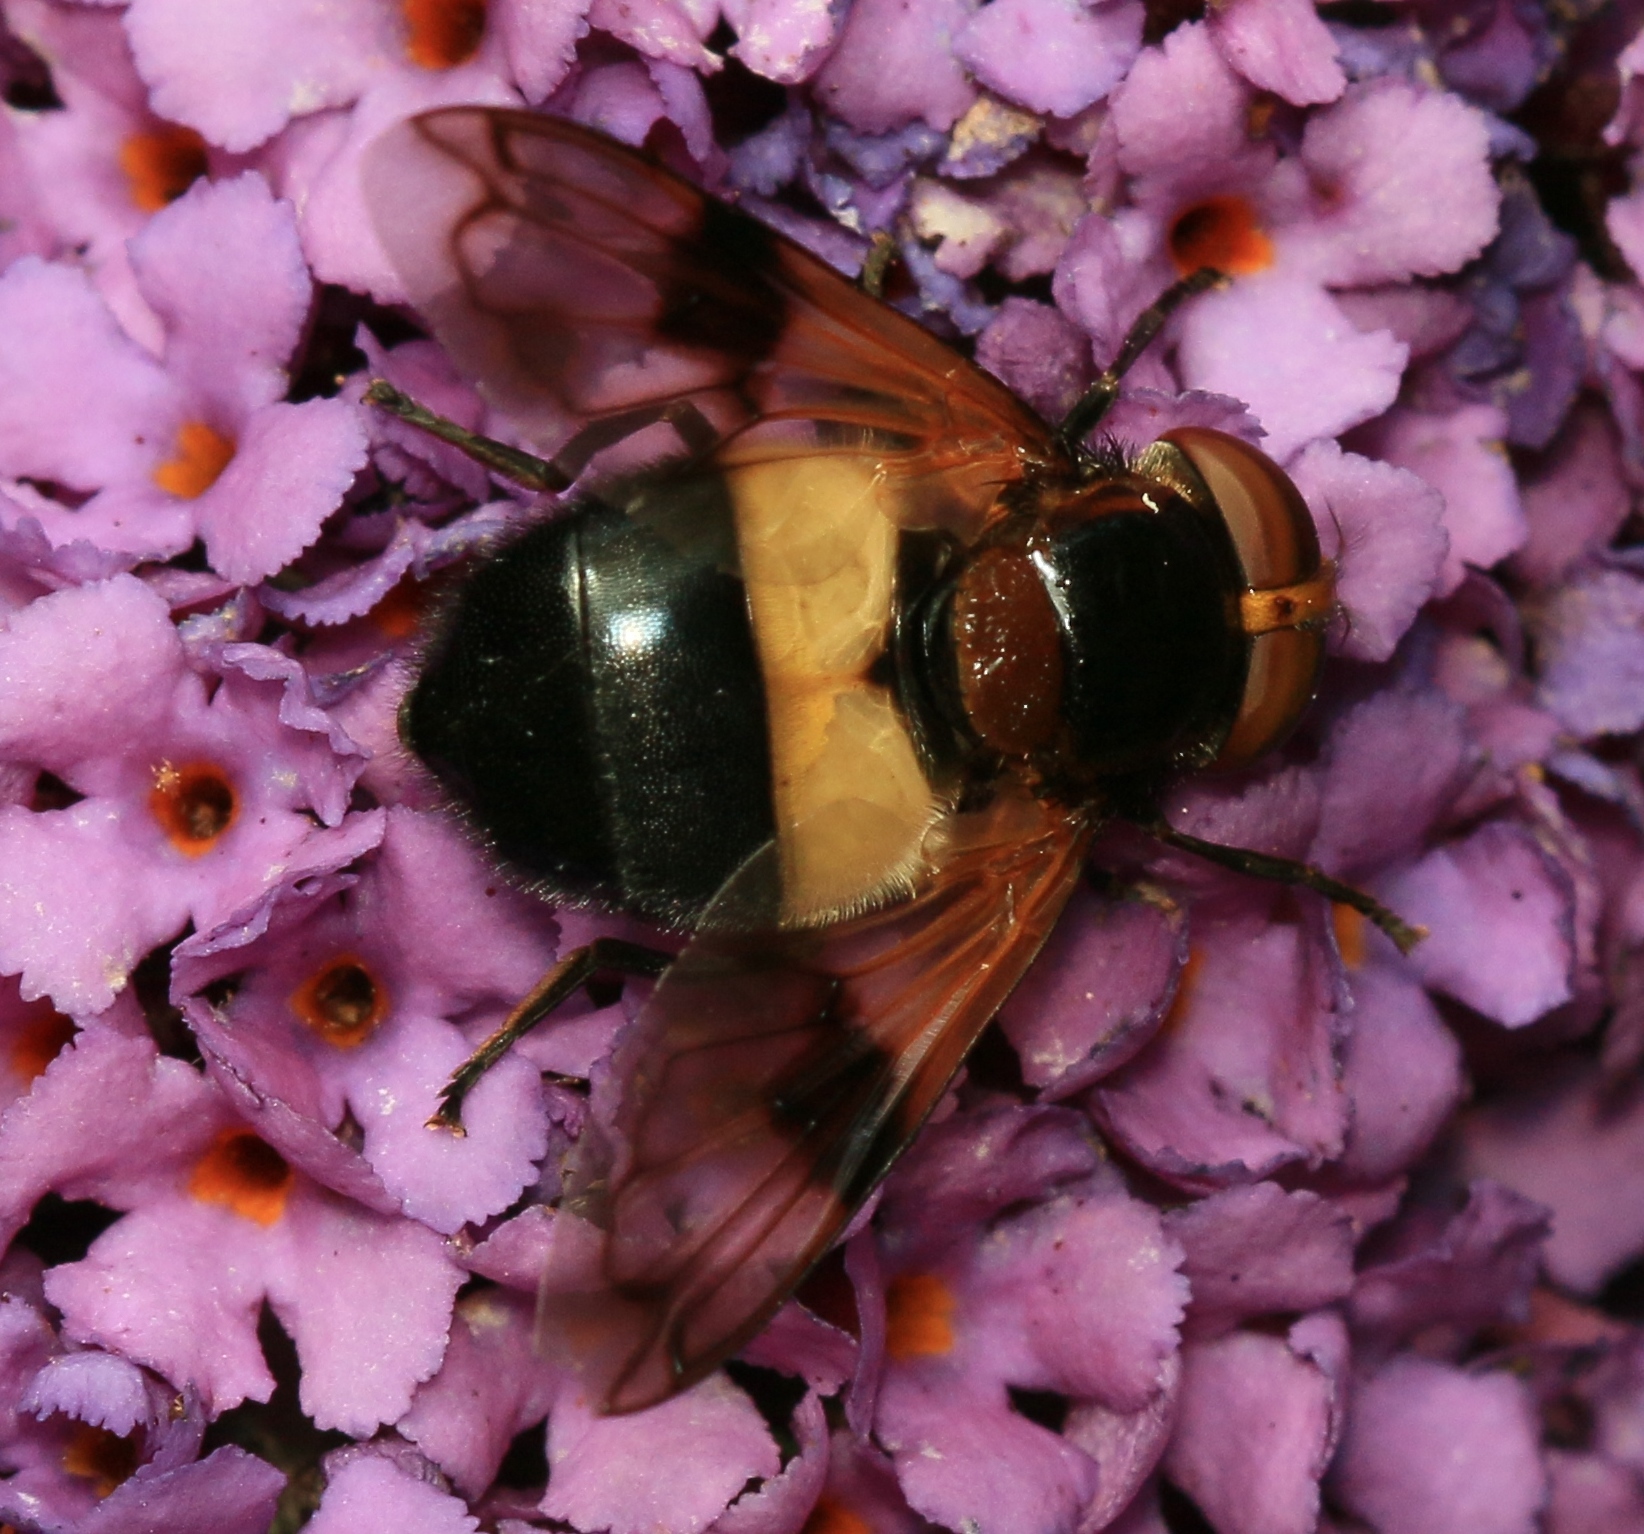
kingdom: Animalia
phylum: Arthropoda
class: Insecta
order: Diptera
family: Syrphidae
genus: Volucella
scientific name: Volucella pellucens
